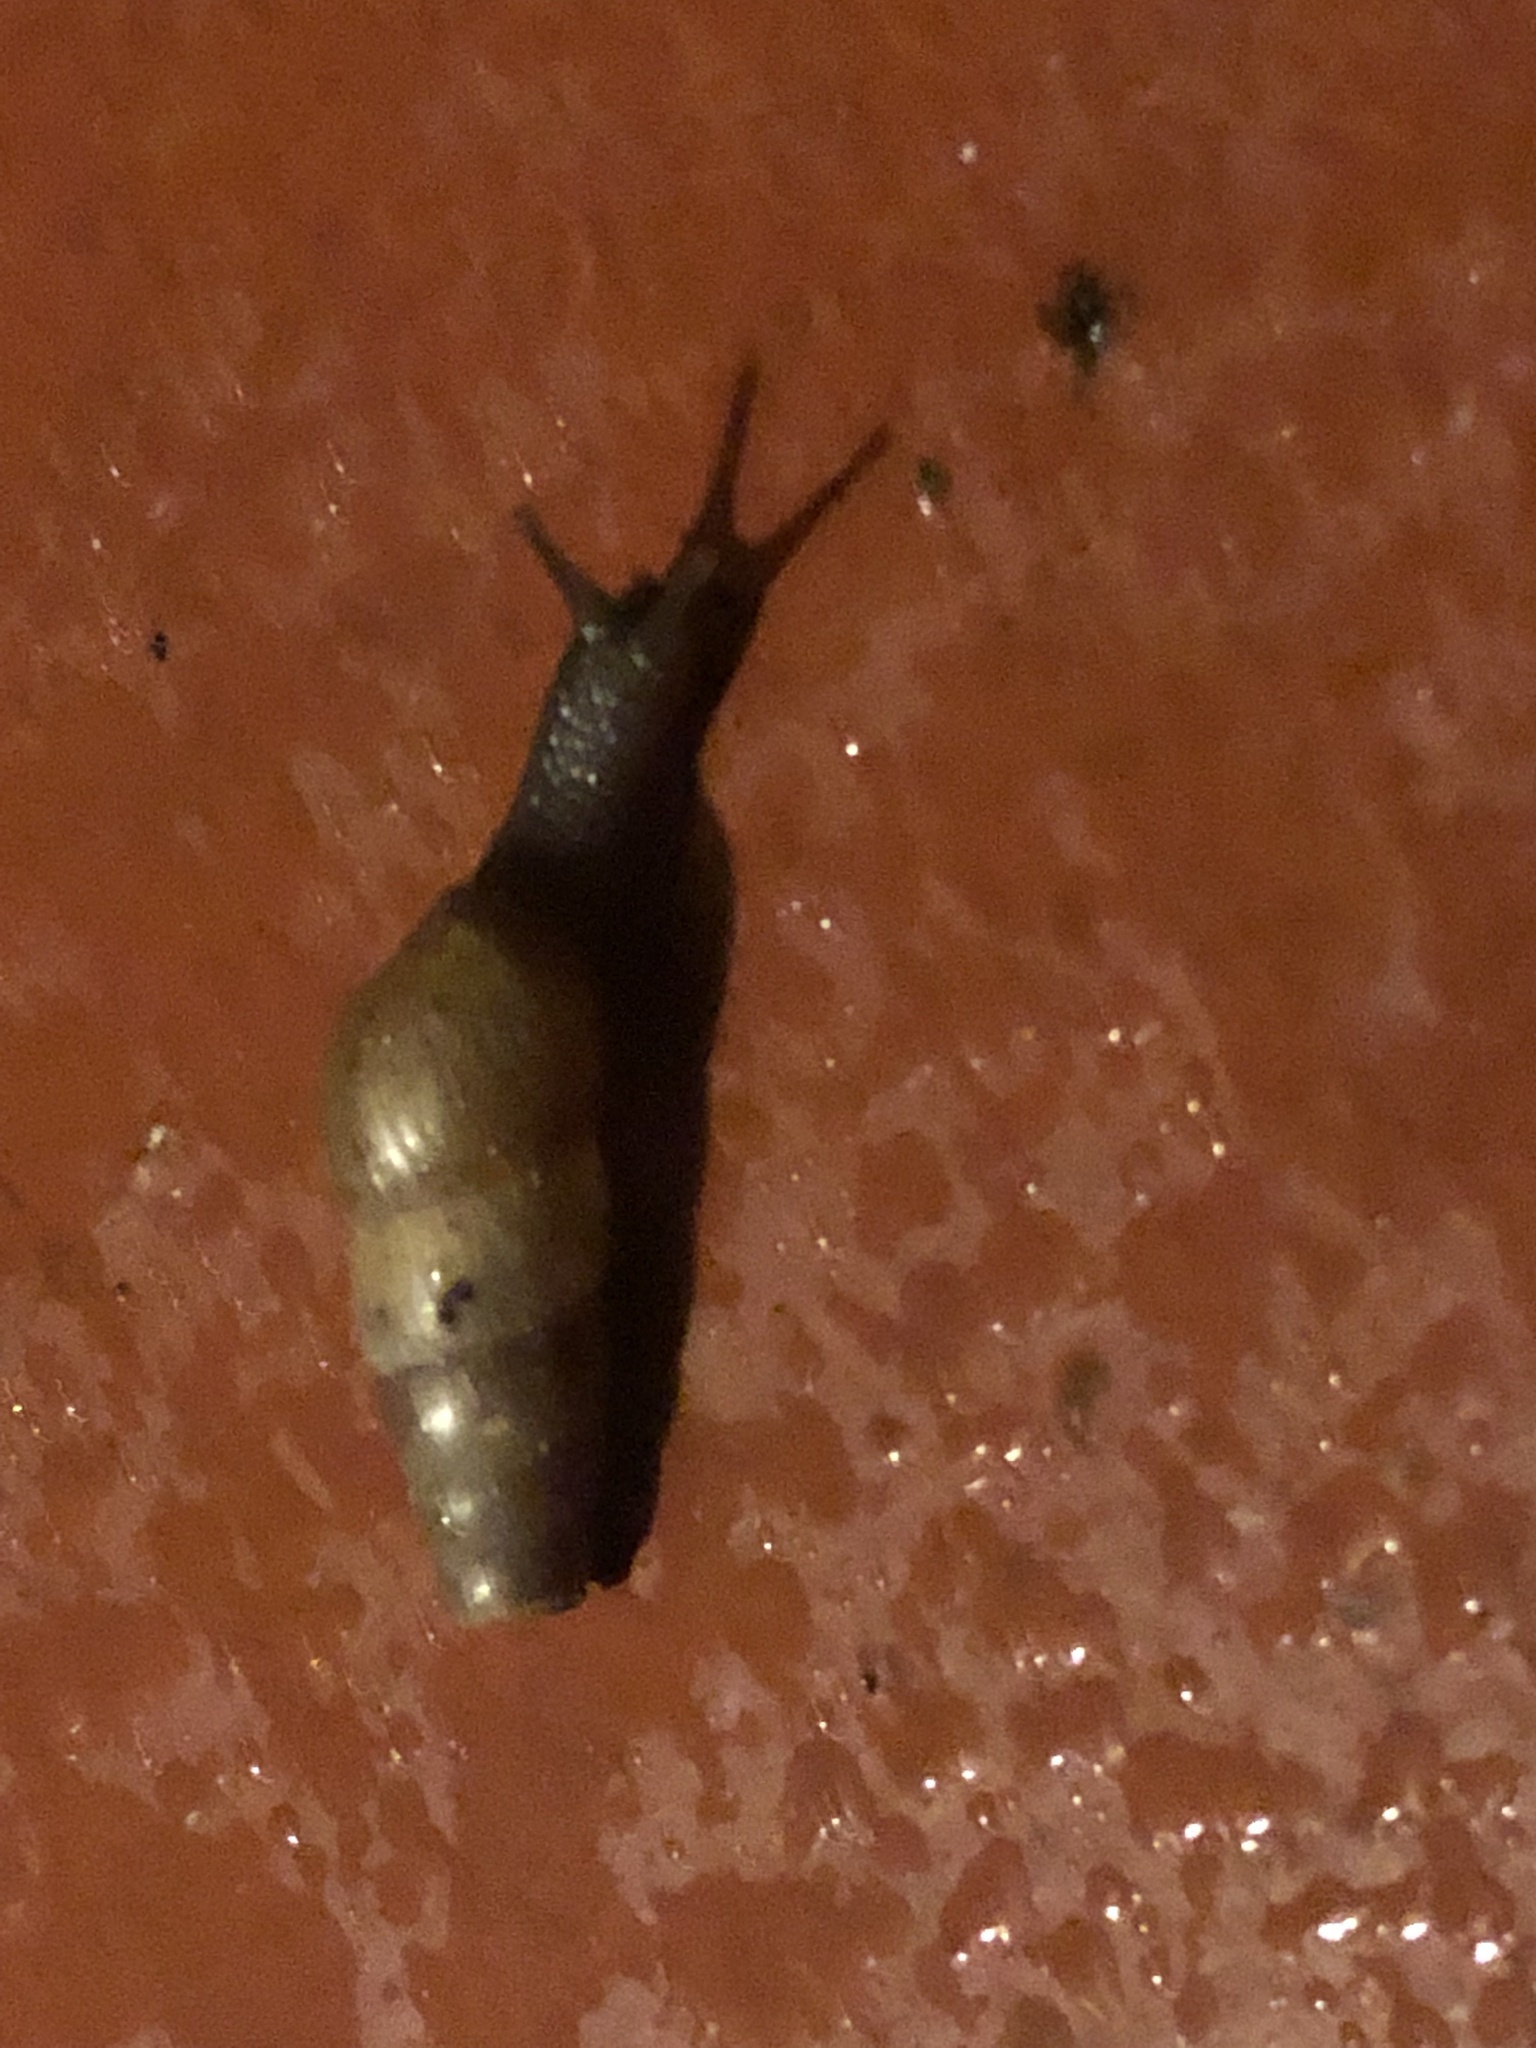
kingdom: Animalia
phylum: Mollusca
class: Gastropoda
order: Stylommatophora
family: Achatinidae
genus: Rumina
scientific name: Rumina decollata
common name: Decollate snail
